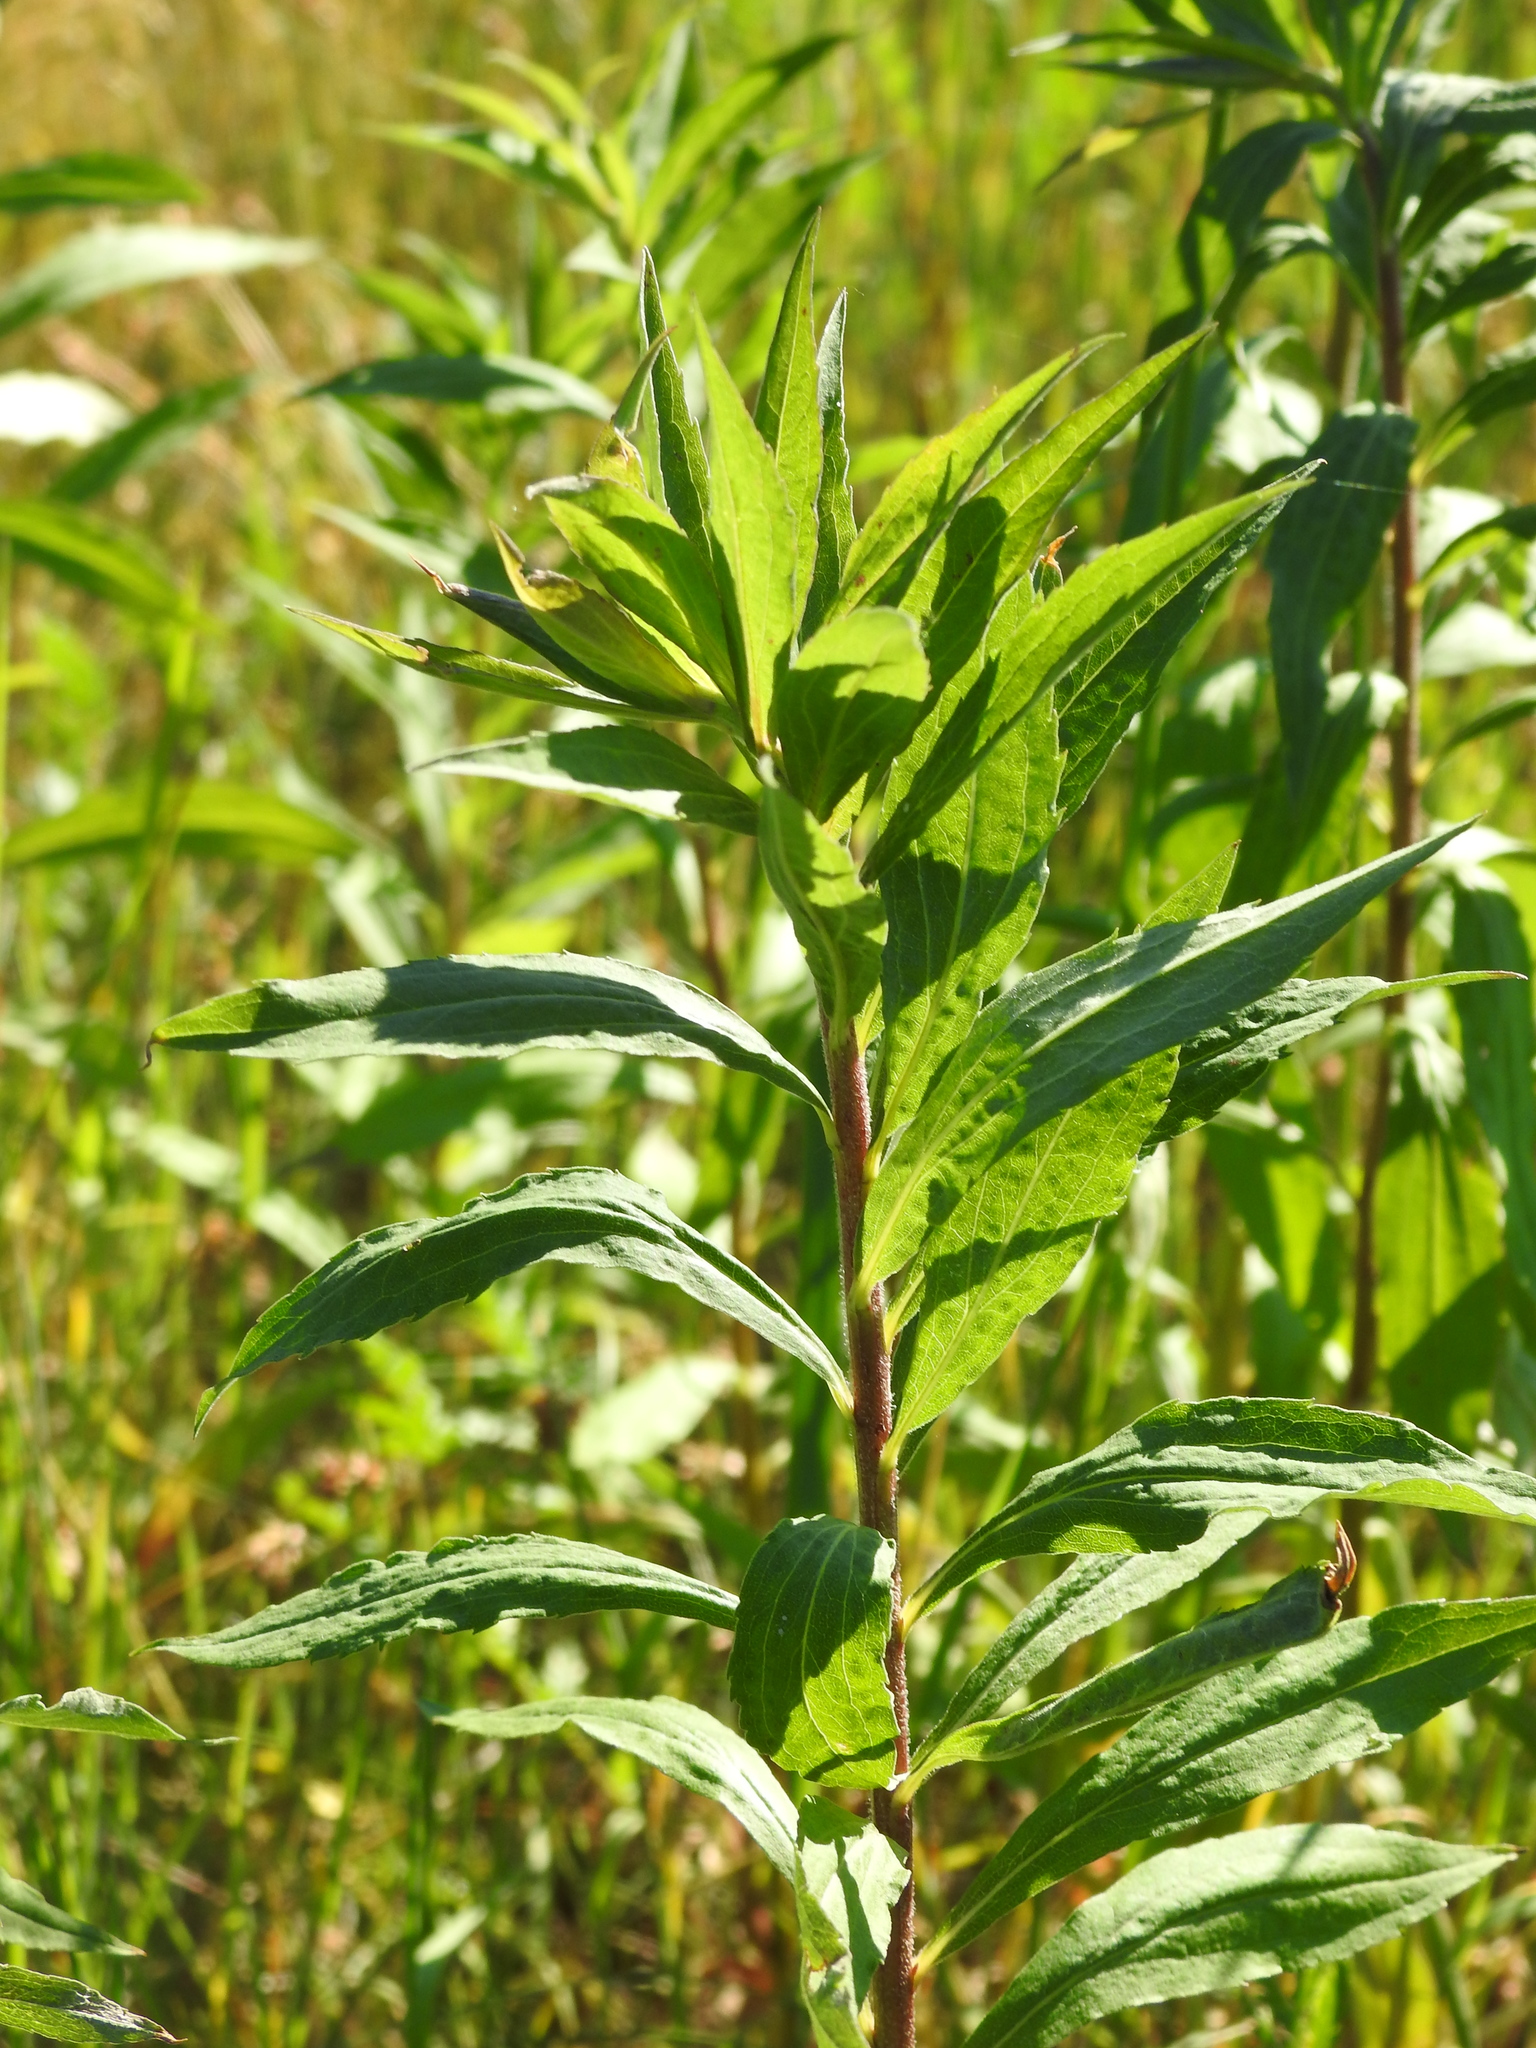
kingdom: Plantae
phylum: Tracheophyta
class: Magnoliopsida
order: Asterales
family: Asteraceae
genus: Solidago
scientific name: Solidago canadensis
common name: Canada goldenrod
